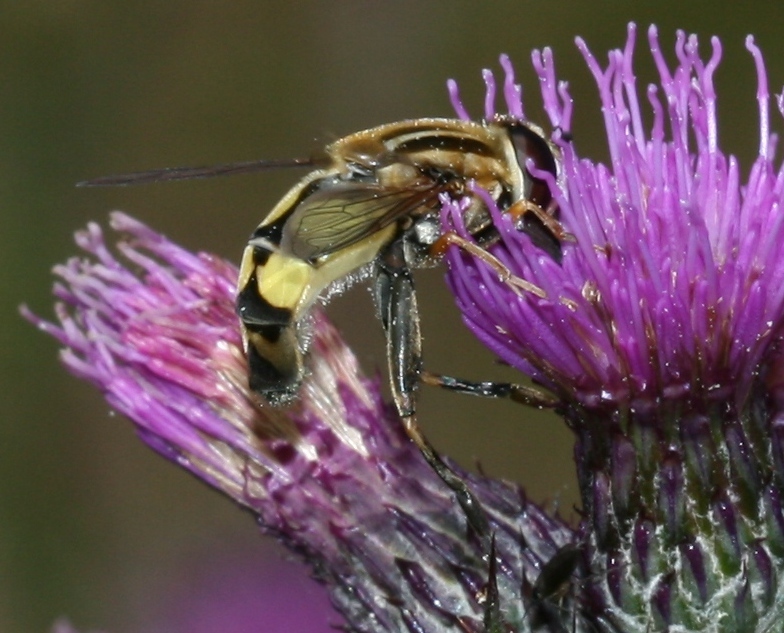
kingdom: Animalia
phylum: Arthropoda
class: Insecta
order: Diptera
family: Syrphidae
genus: Helophilus
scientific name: Helophilus trivittatus
